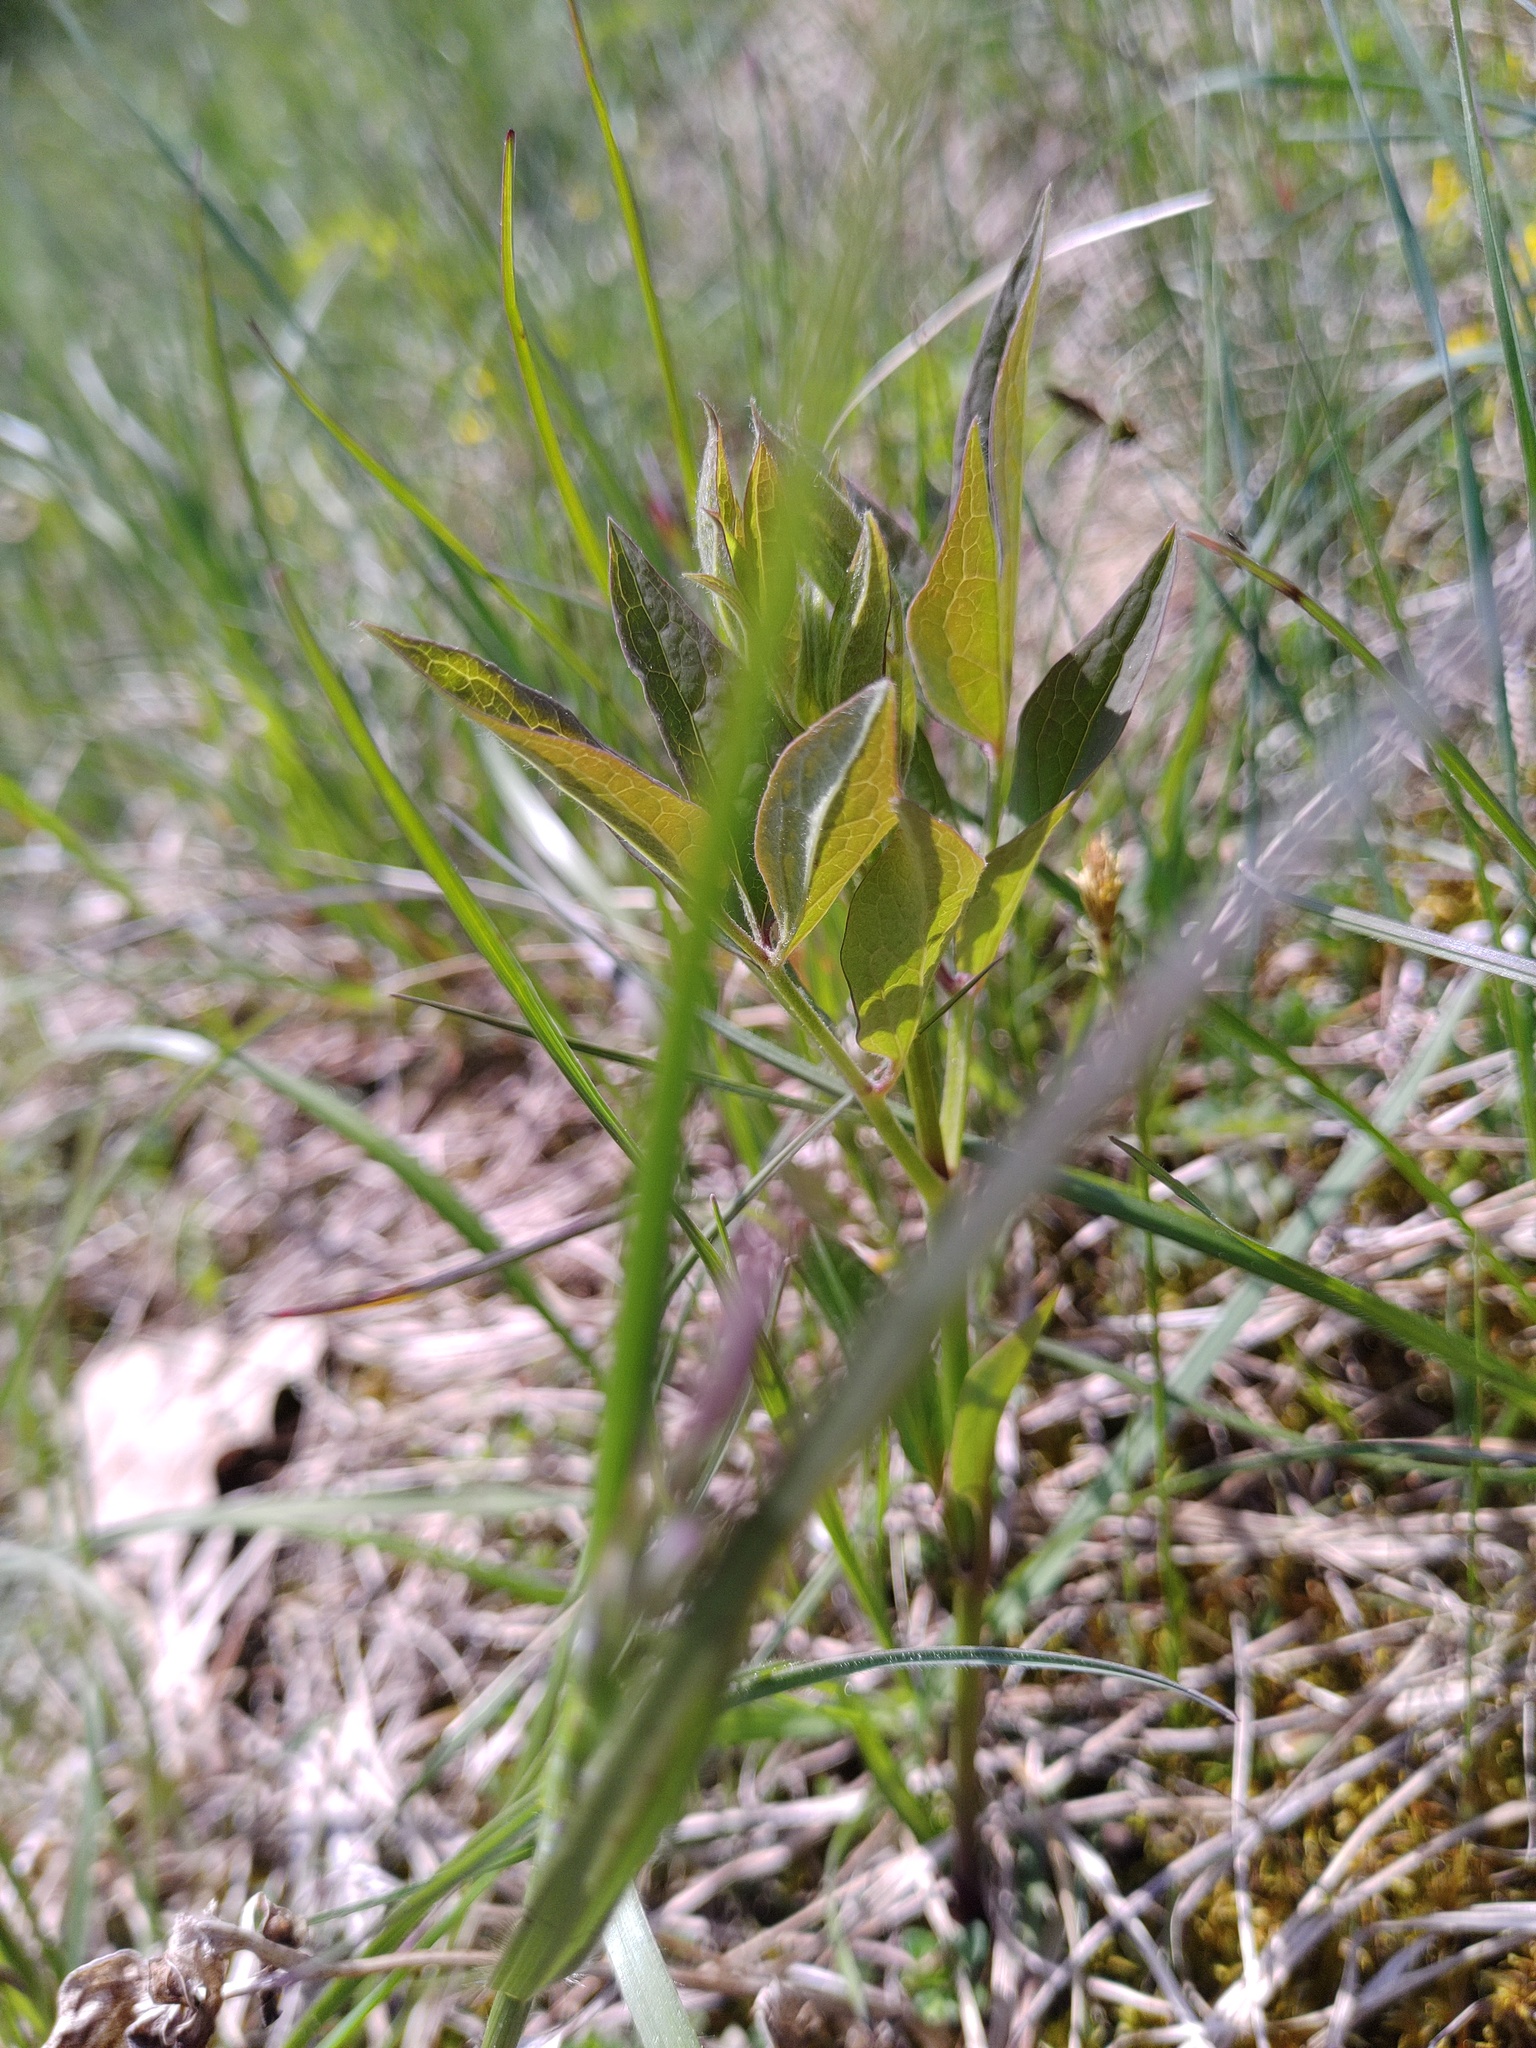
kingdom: Plantae
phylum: Tracheophyta
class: Magnoliopsida
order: Ranunculales
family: Ranunculaceae
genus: Clematis
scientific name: Clematis recta
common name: Ground clematis
